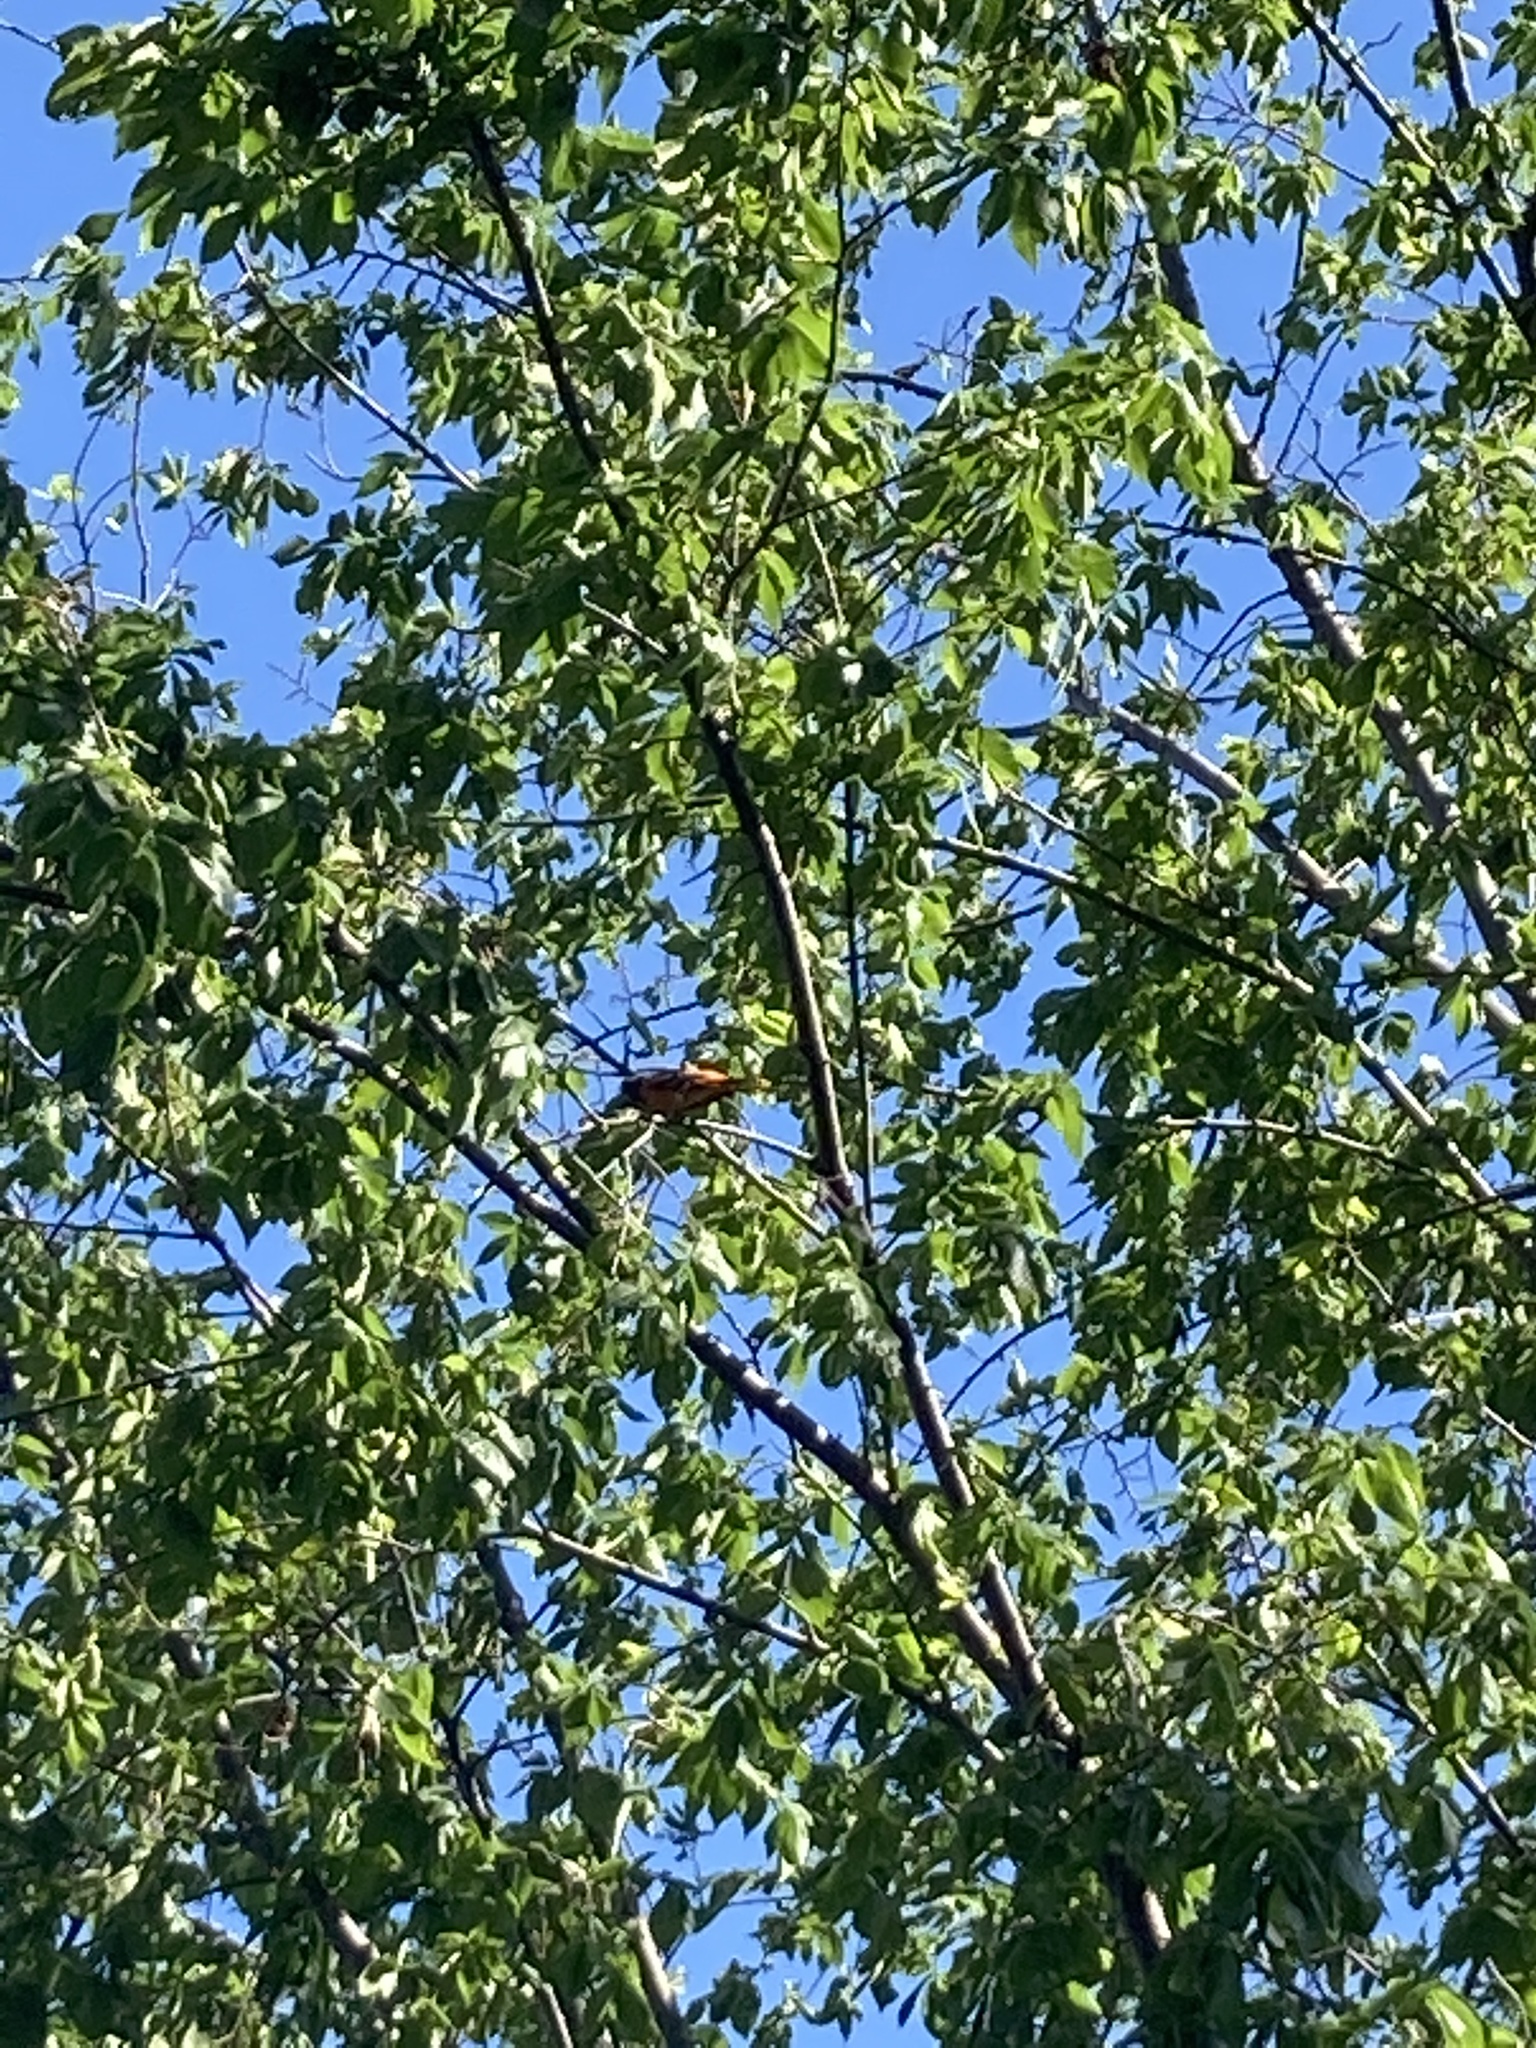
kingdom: Animalia
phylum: Chordata
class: Aves
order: Passeriformes
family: Icteridae
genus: Icterus
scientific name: Icterus galbula
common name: Baltimore oriole
